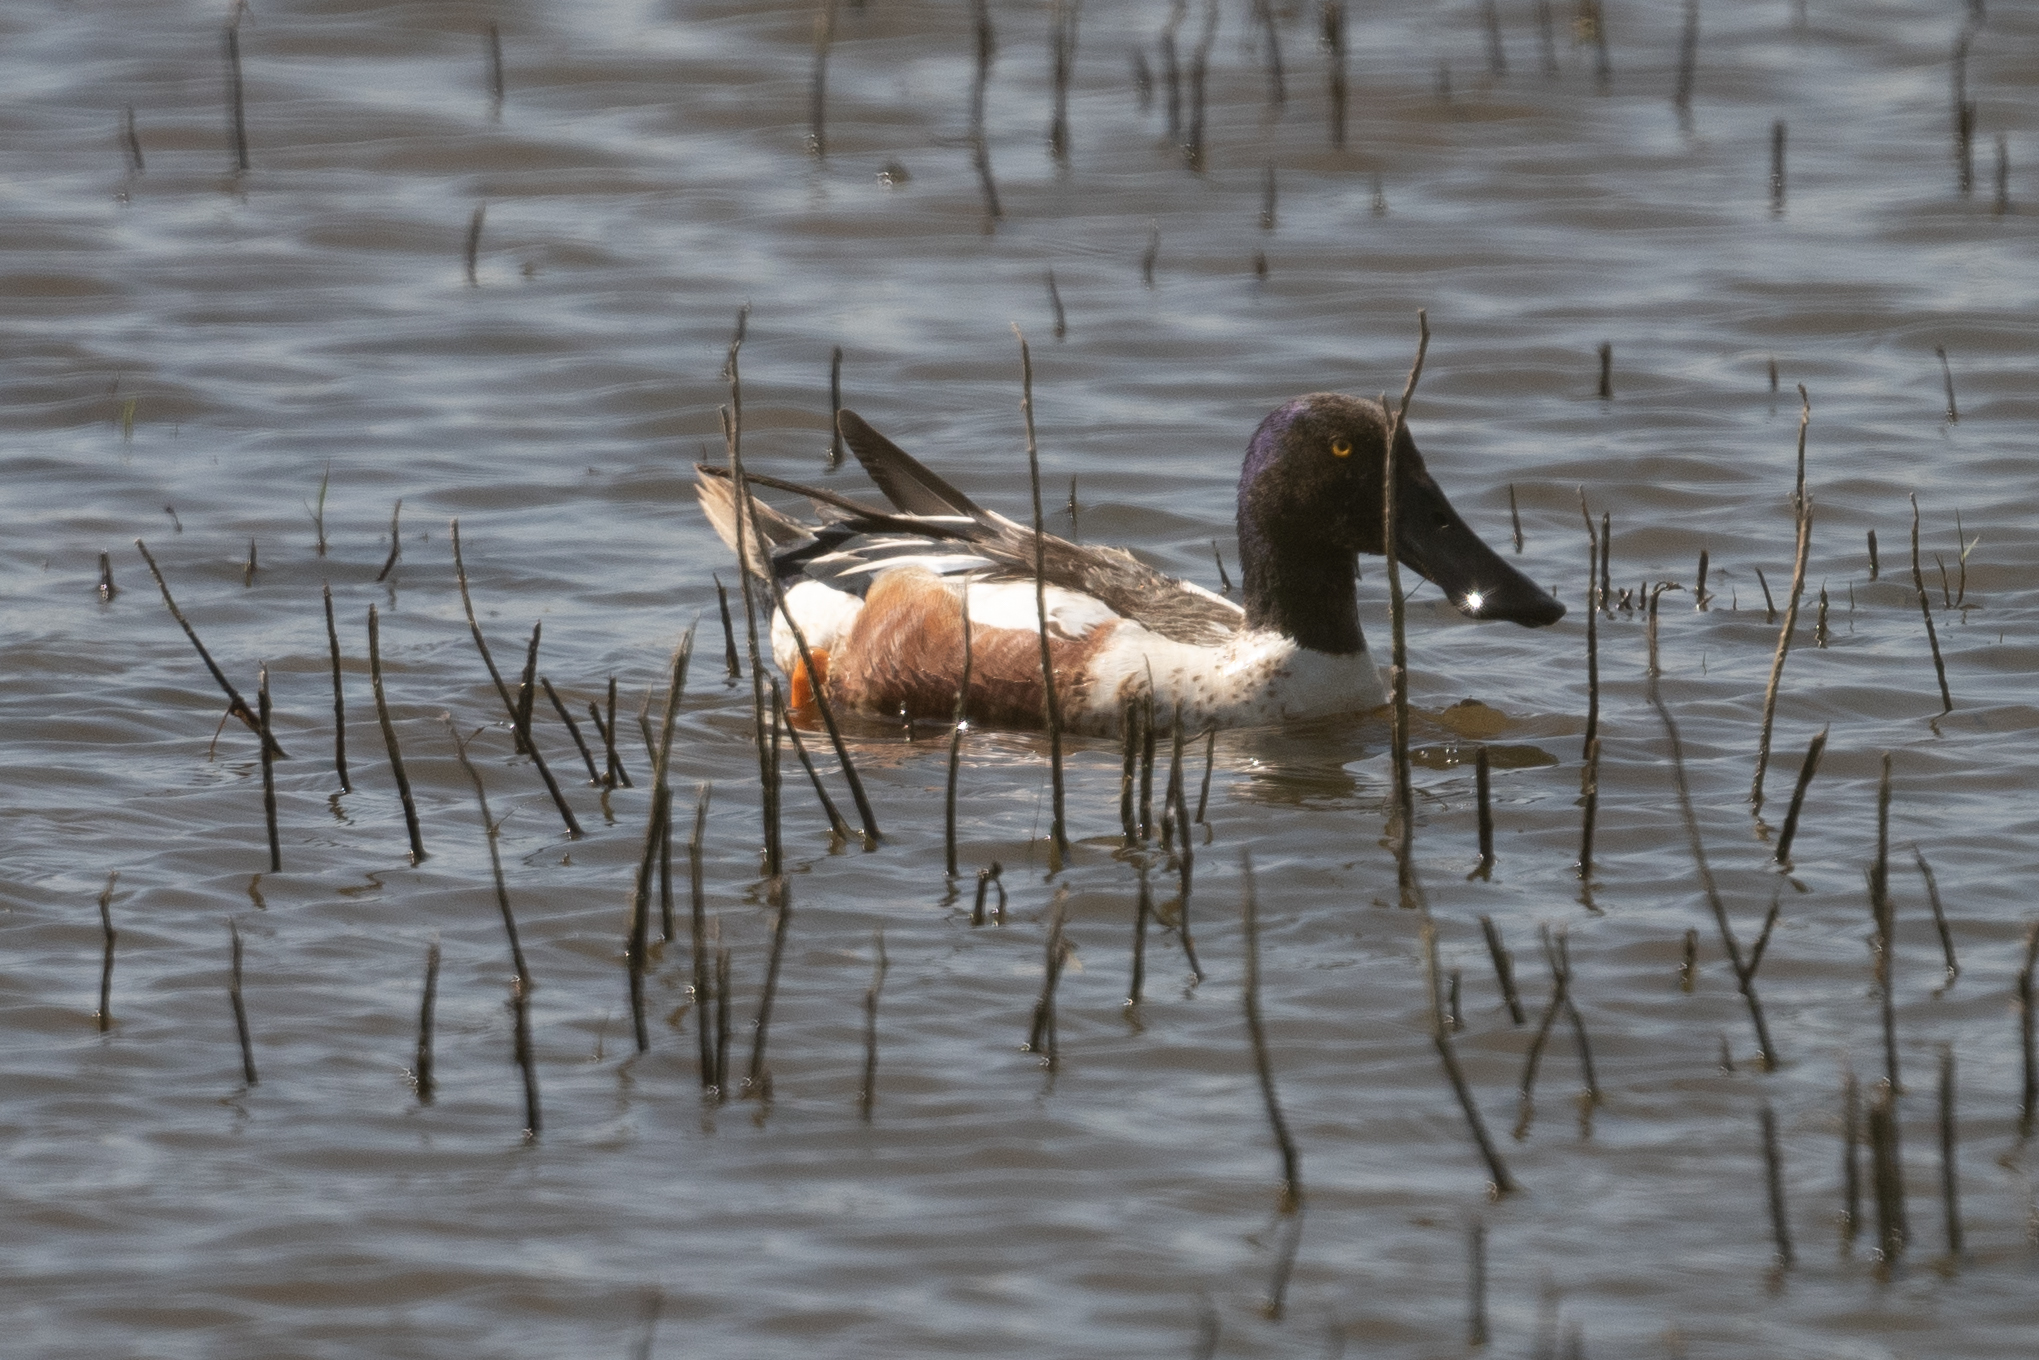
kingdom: Animalia
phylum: Chordata
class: Aves
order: Anseriformes
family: Anatidae
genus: Spatula
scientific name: Spatula clypeata
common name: Northern shoveler
